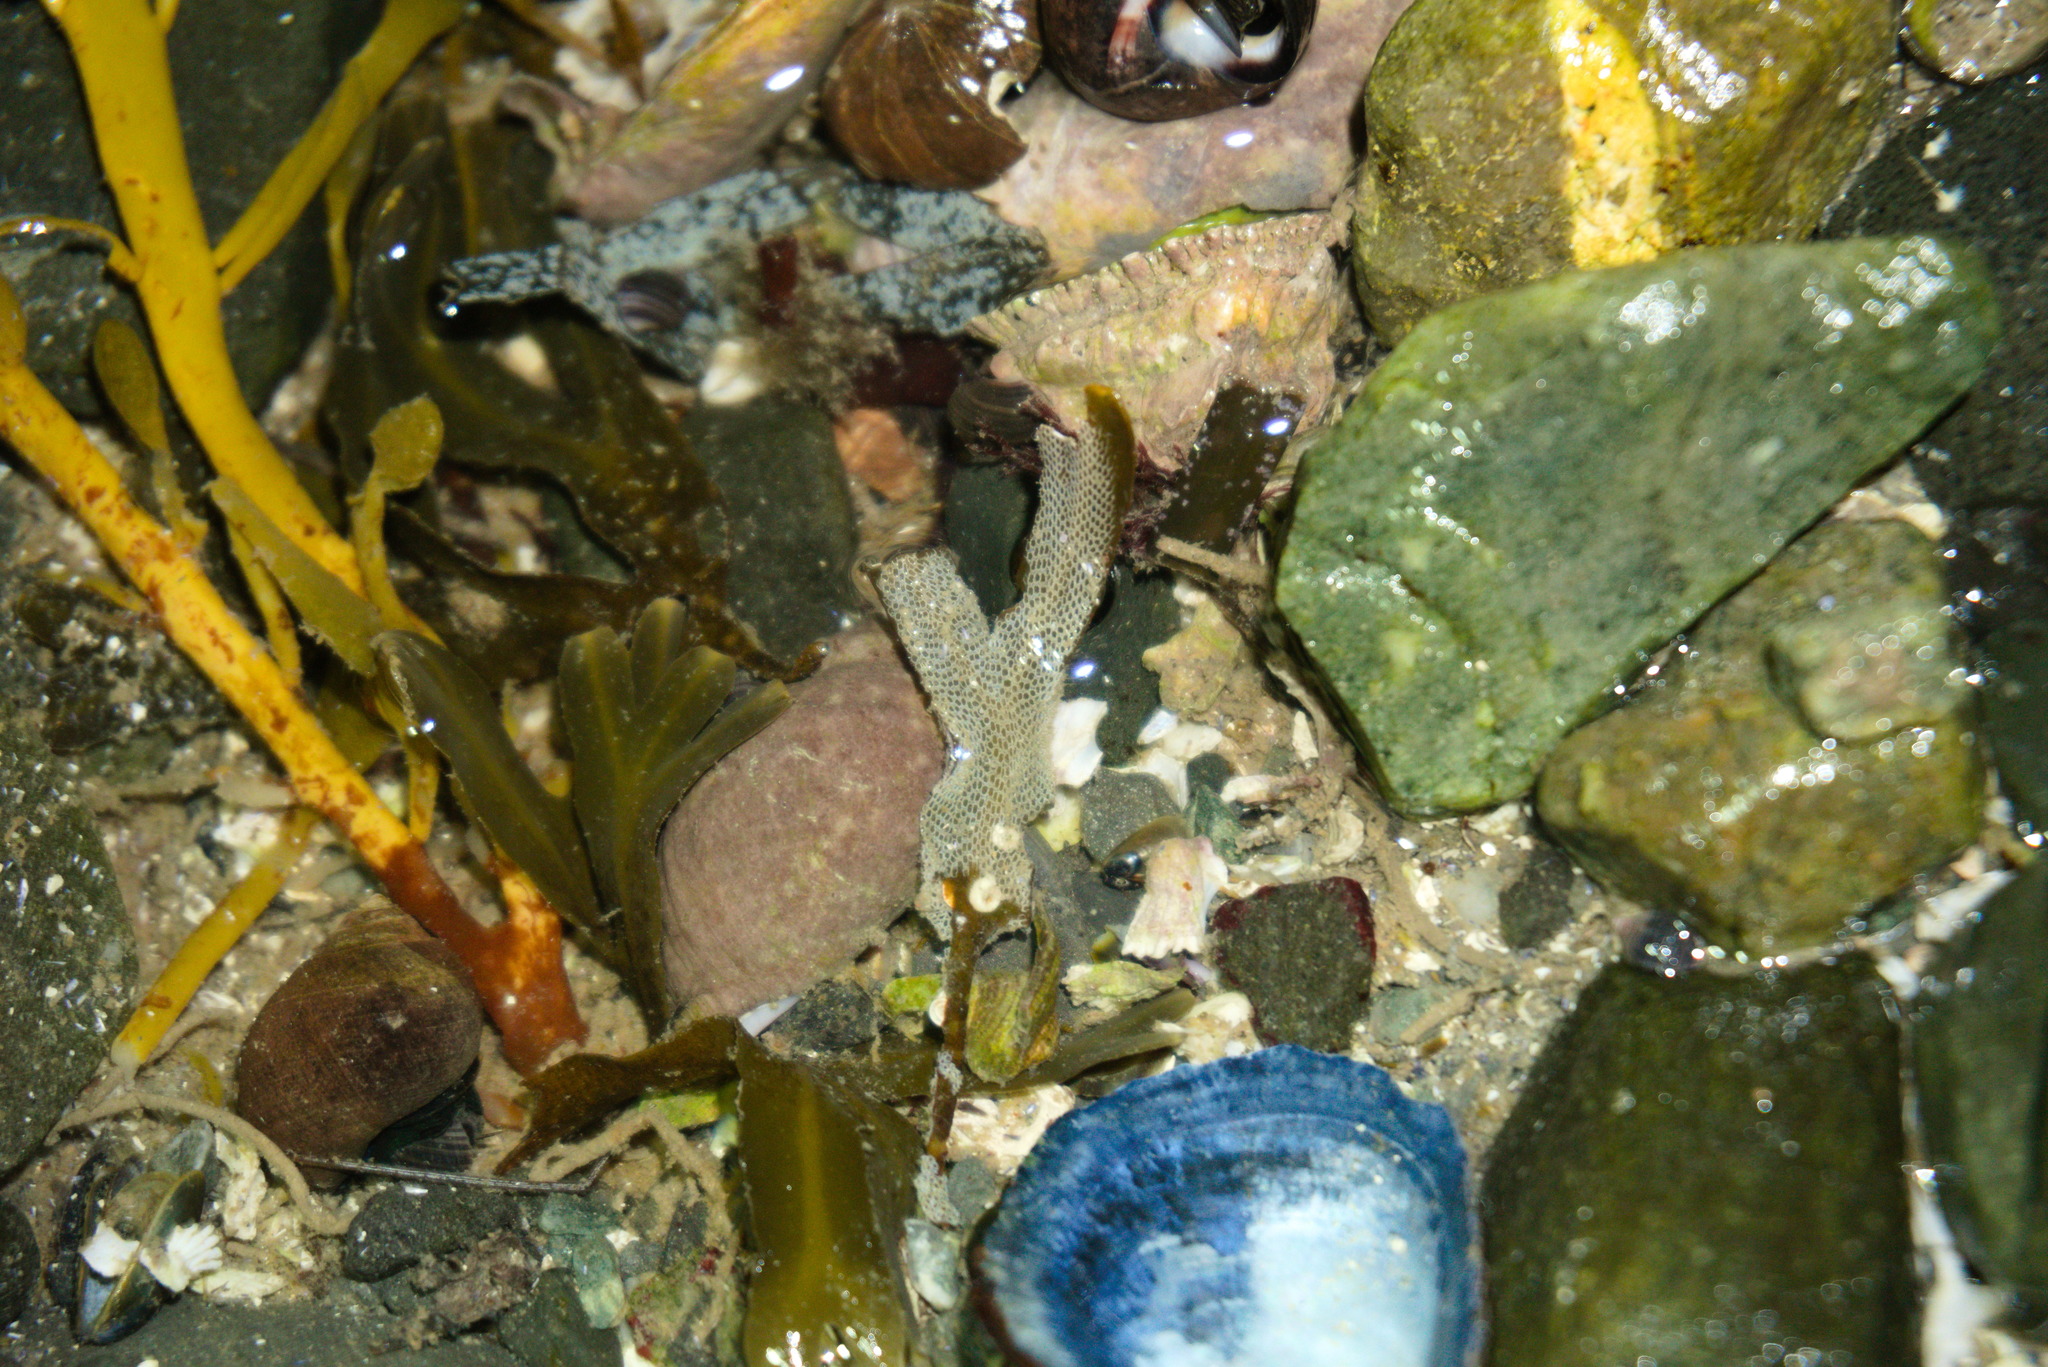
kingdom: Animalia
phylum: Bryozoa
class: Gymnolaemata
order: Cheilostomatida
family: Electridae
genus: Electra
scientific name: Electra pilosa
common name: Hairy sea-mat
